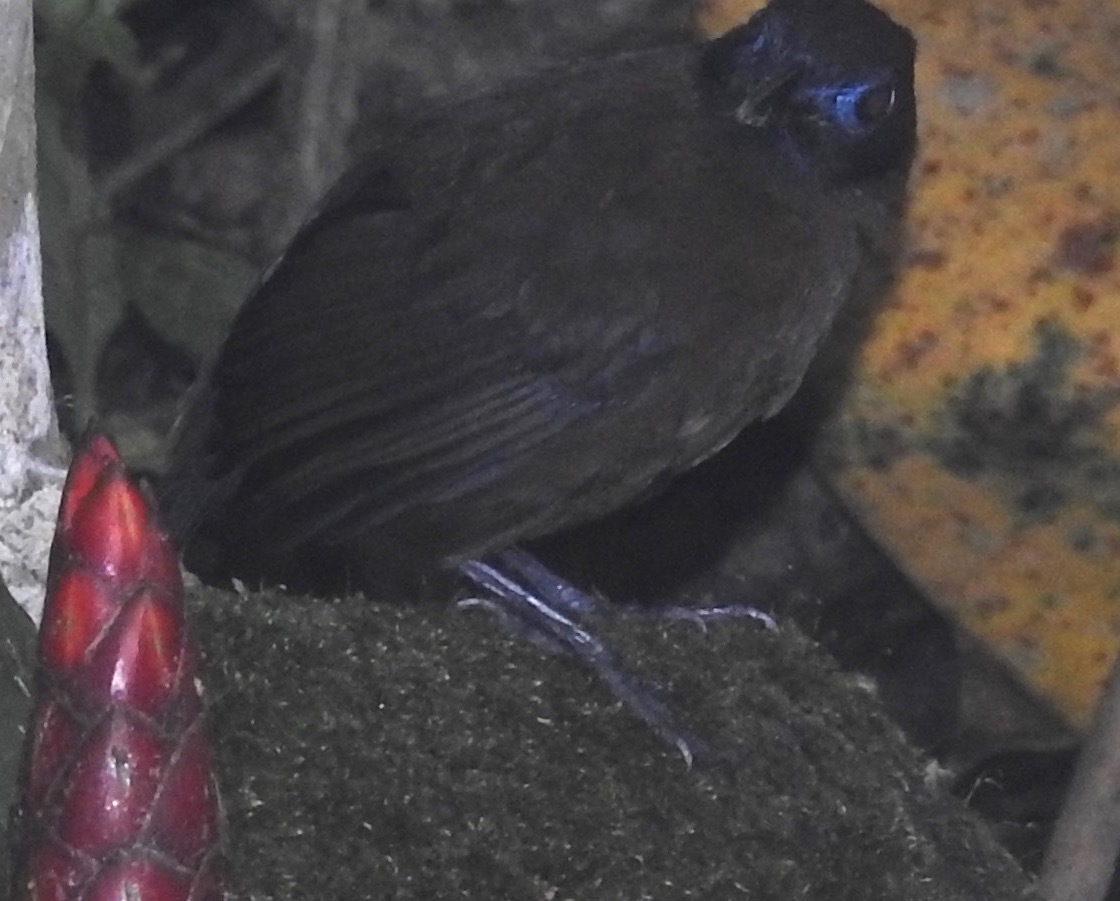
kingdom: Animalia
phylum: Chordata
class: Aves
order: Passeriformes
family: Thamnophilidae
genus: Myrmeciza
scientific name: Myrmeciza zeledoni
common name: Zeledon's antbird
